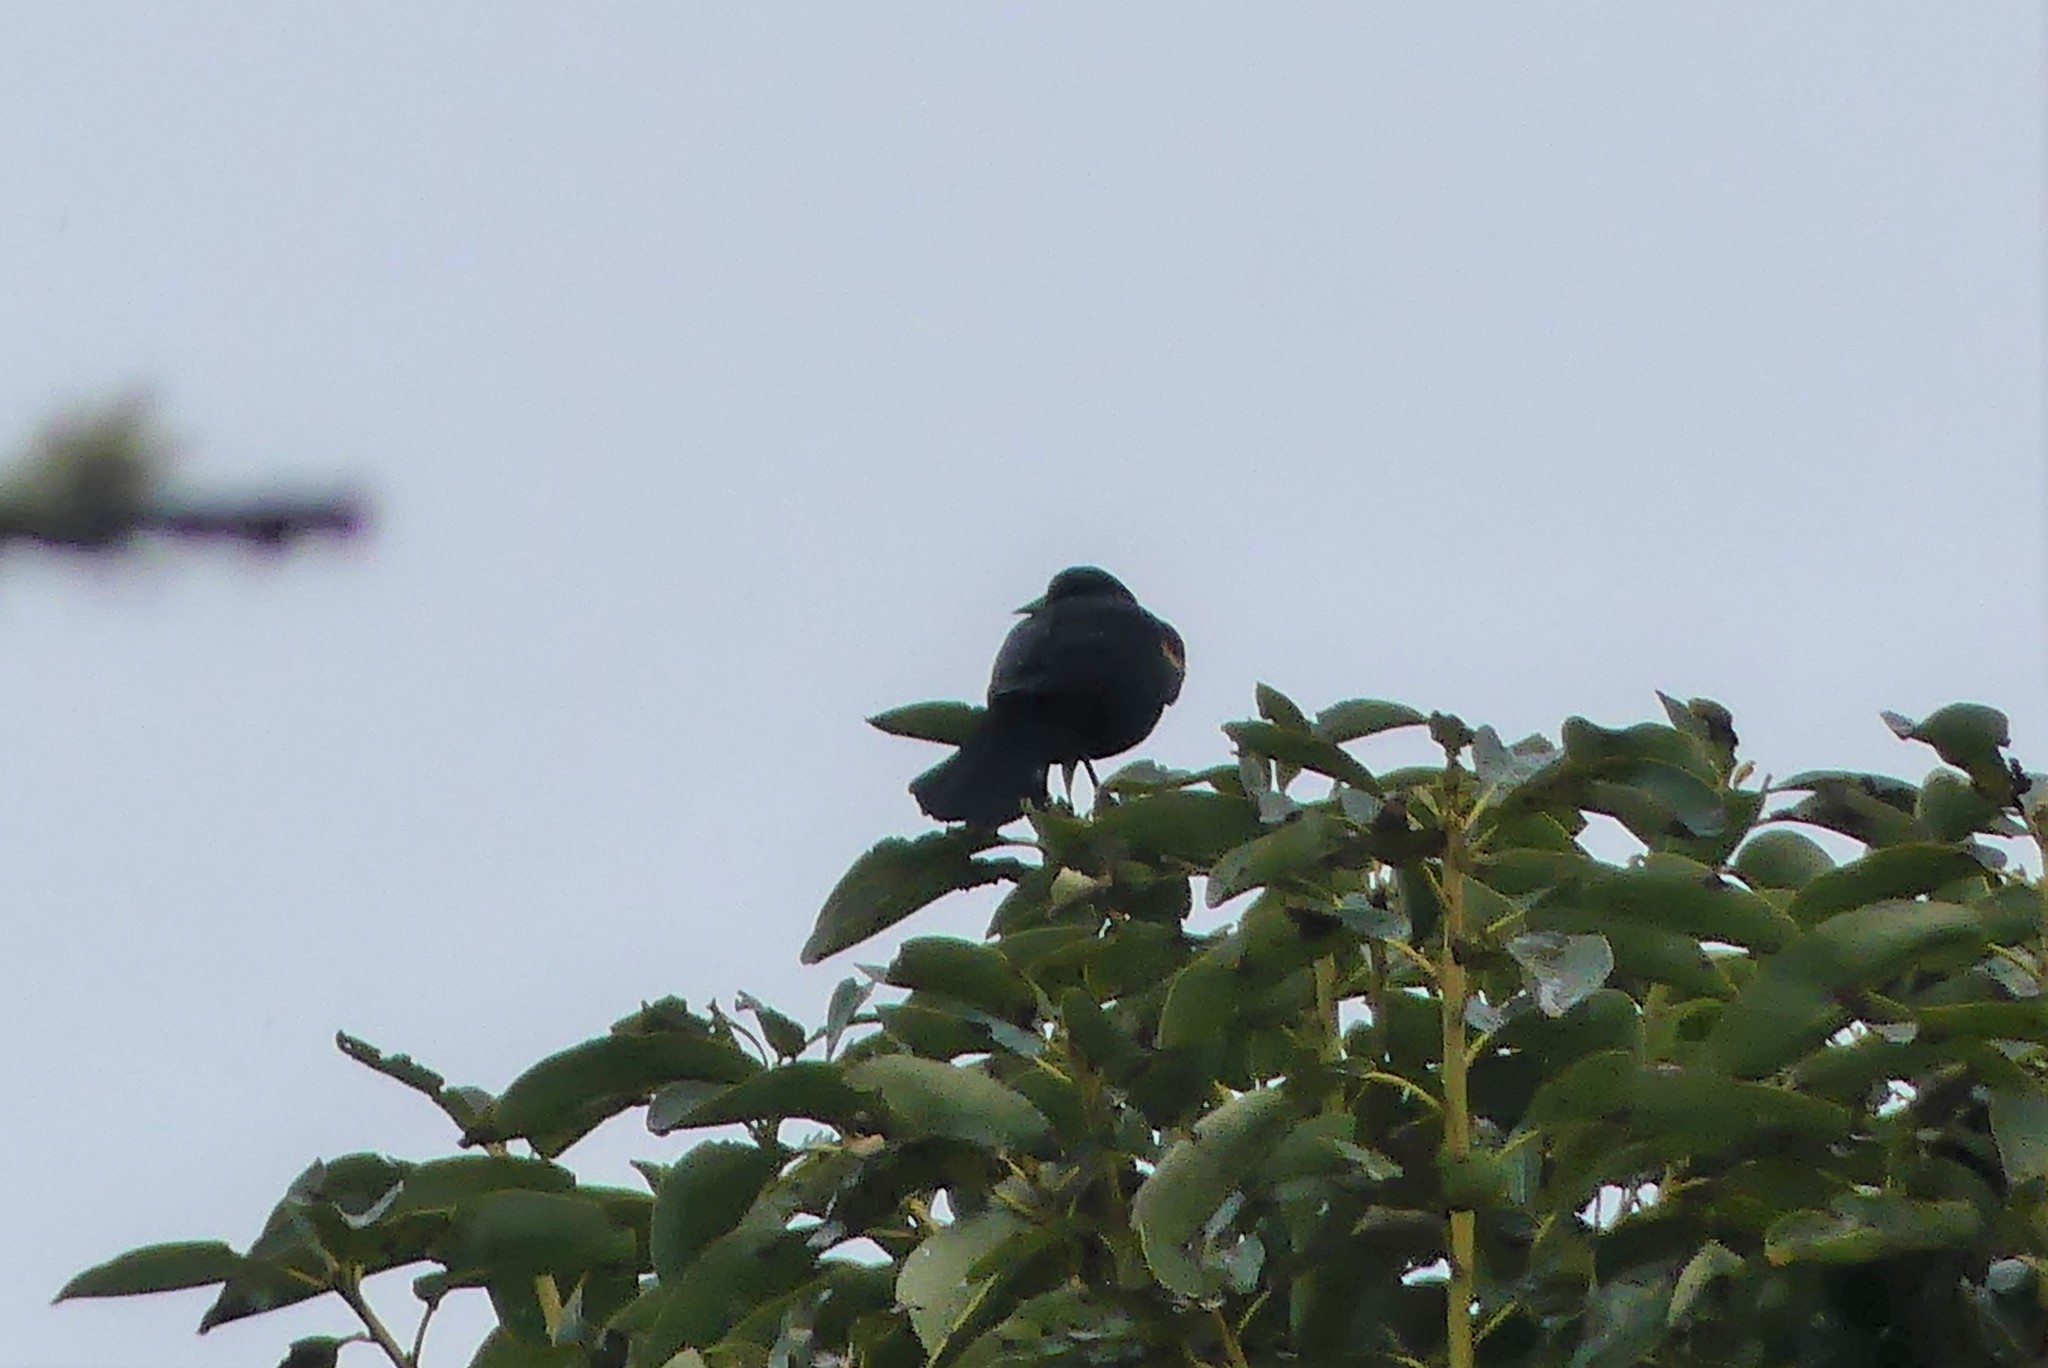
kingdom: Animalia
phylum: Chordata
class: Aves
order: Passeriformes
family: Icteridae
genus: Agelaius
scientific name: Agelaius phoeniceus
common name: Red-winged blackbird
